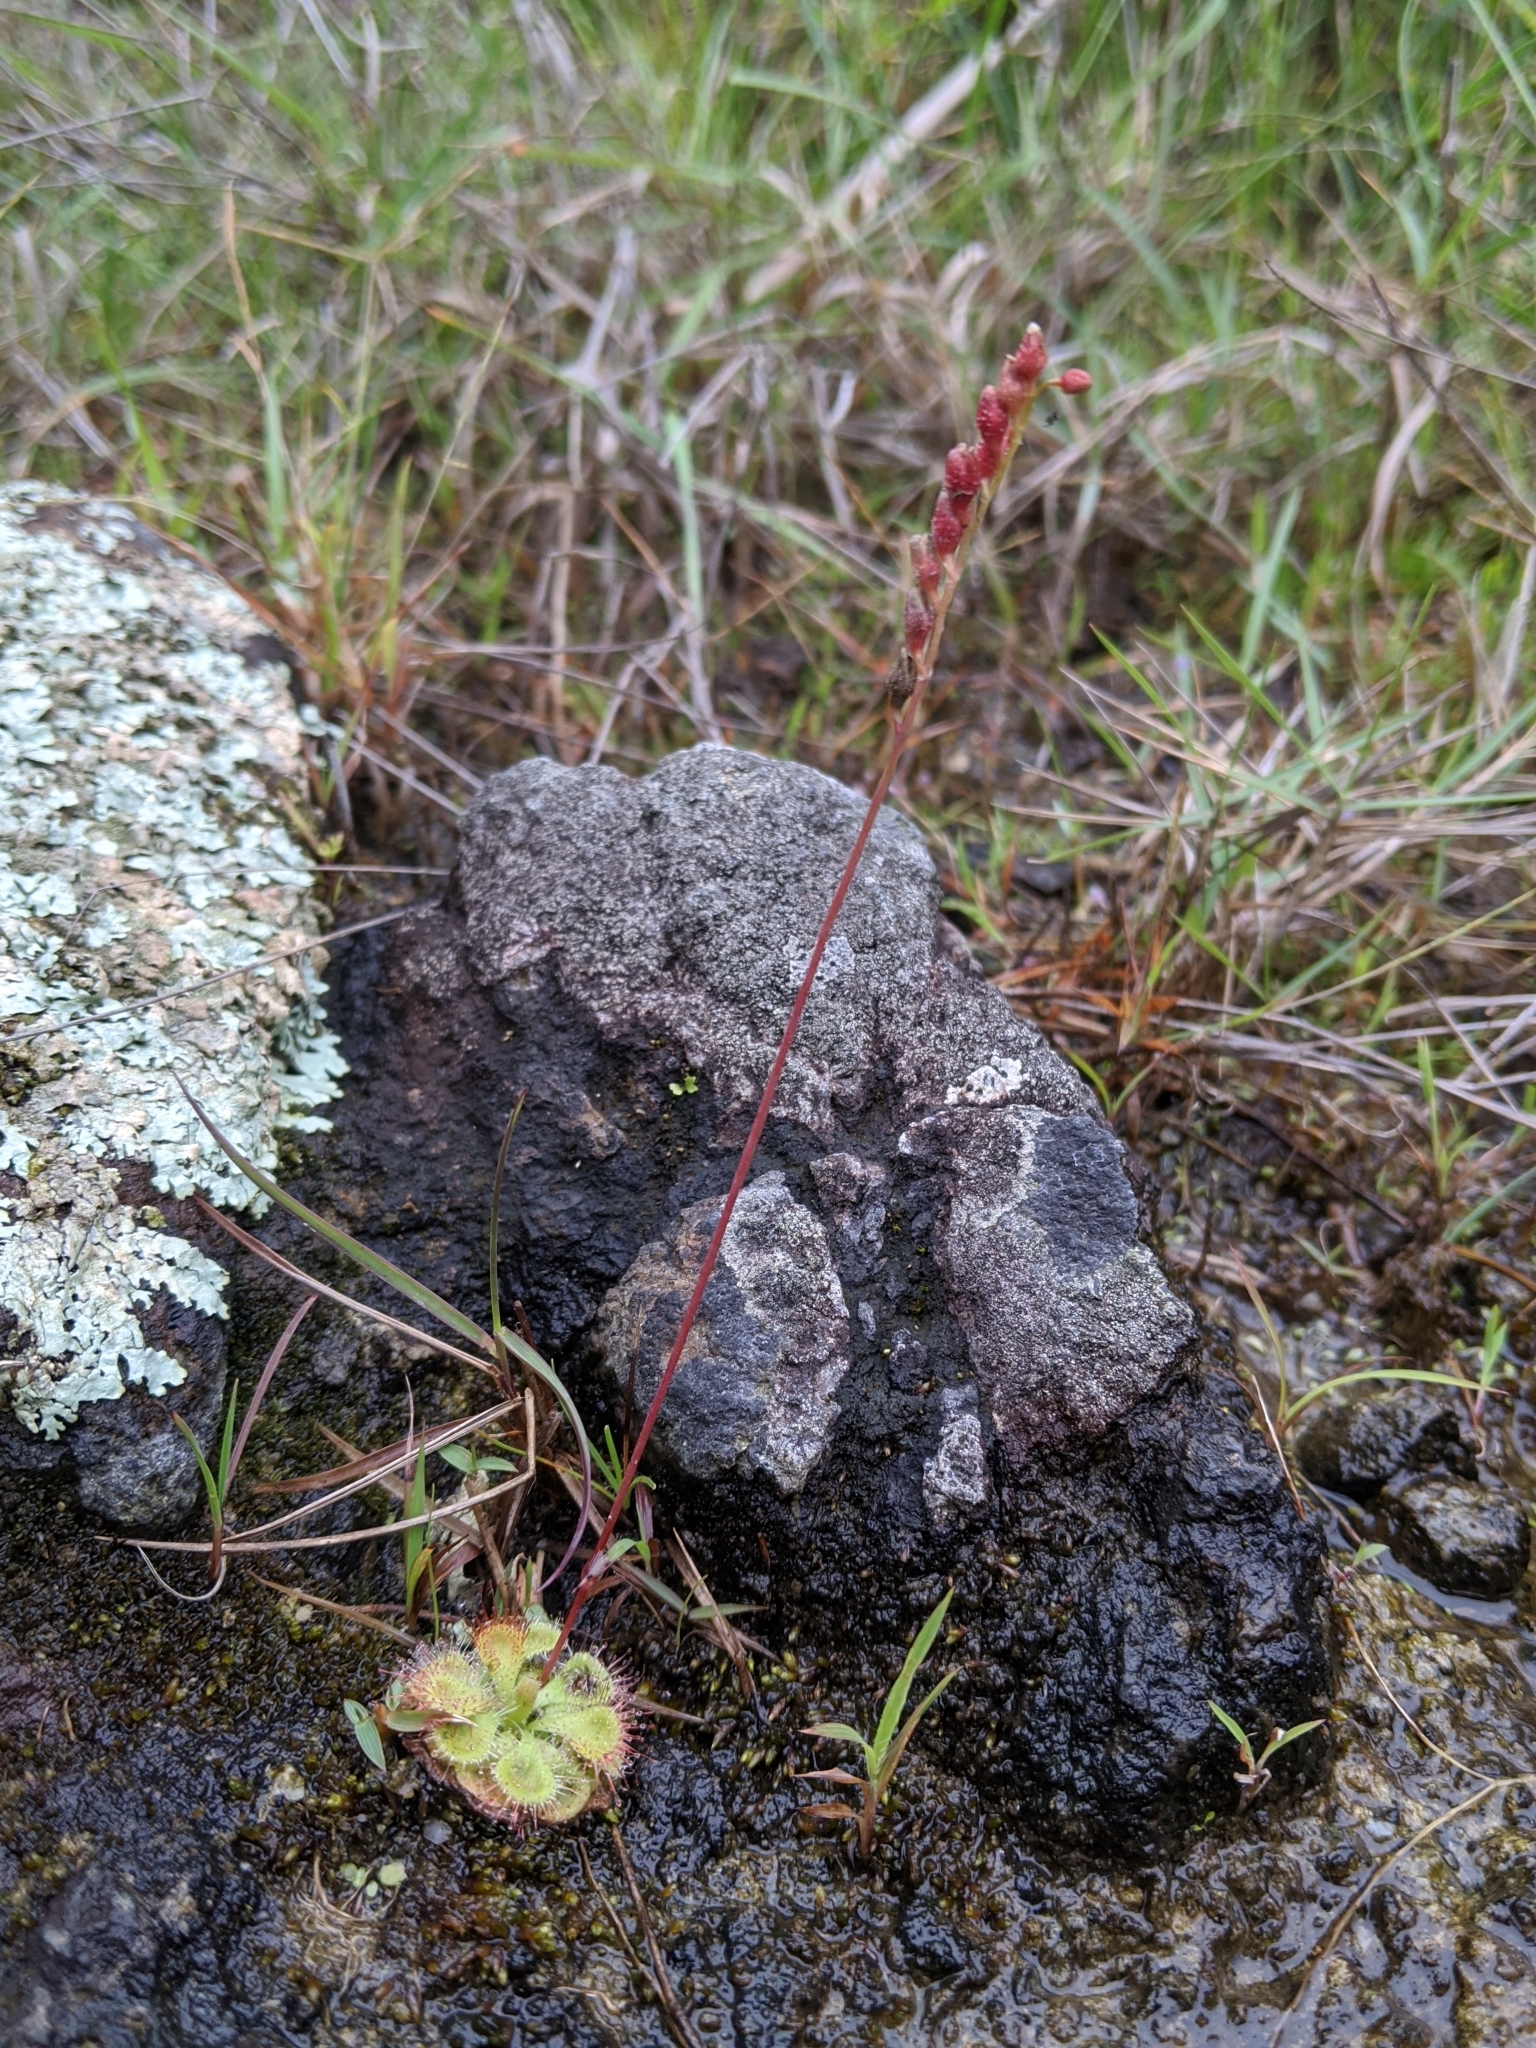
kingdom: Plantae
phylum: Tracheophyta
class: Magnoliopsida
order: Caryophyllales
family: Droseraceae
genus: Drosera
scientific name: Drosera spatulata
